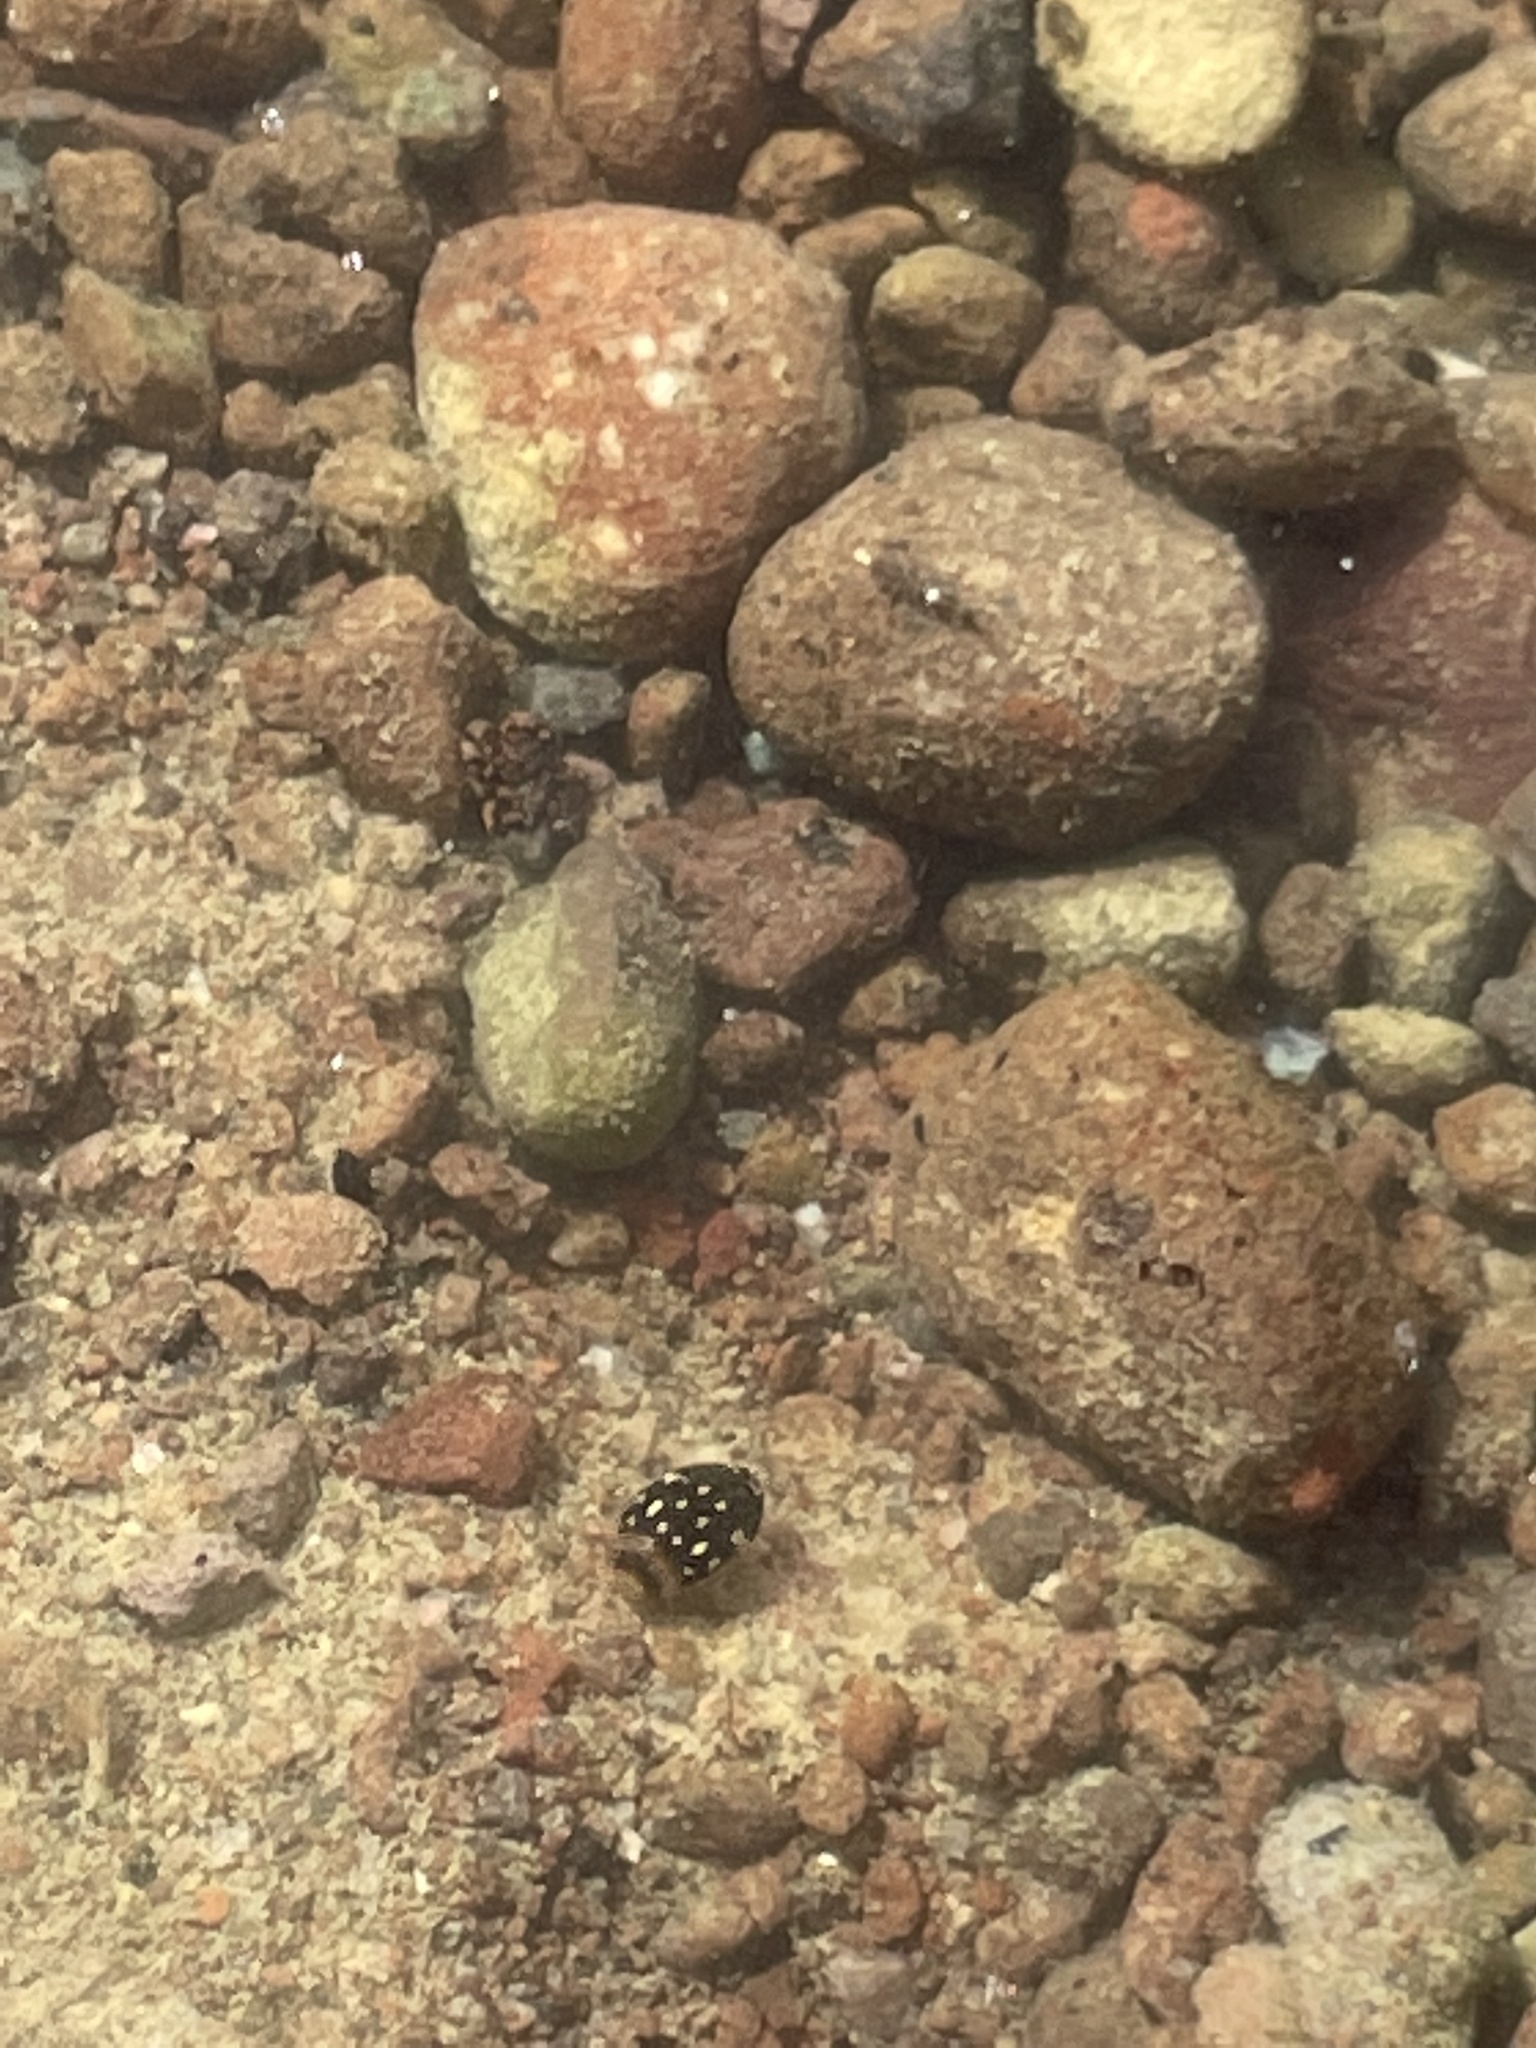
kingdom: Animalia
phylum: Arthropoda
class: Insecta
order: Coleoptera
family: Dytiscidae
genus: Laccophilus
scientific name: Laccophilus pictus
